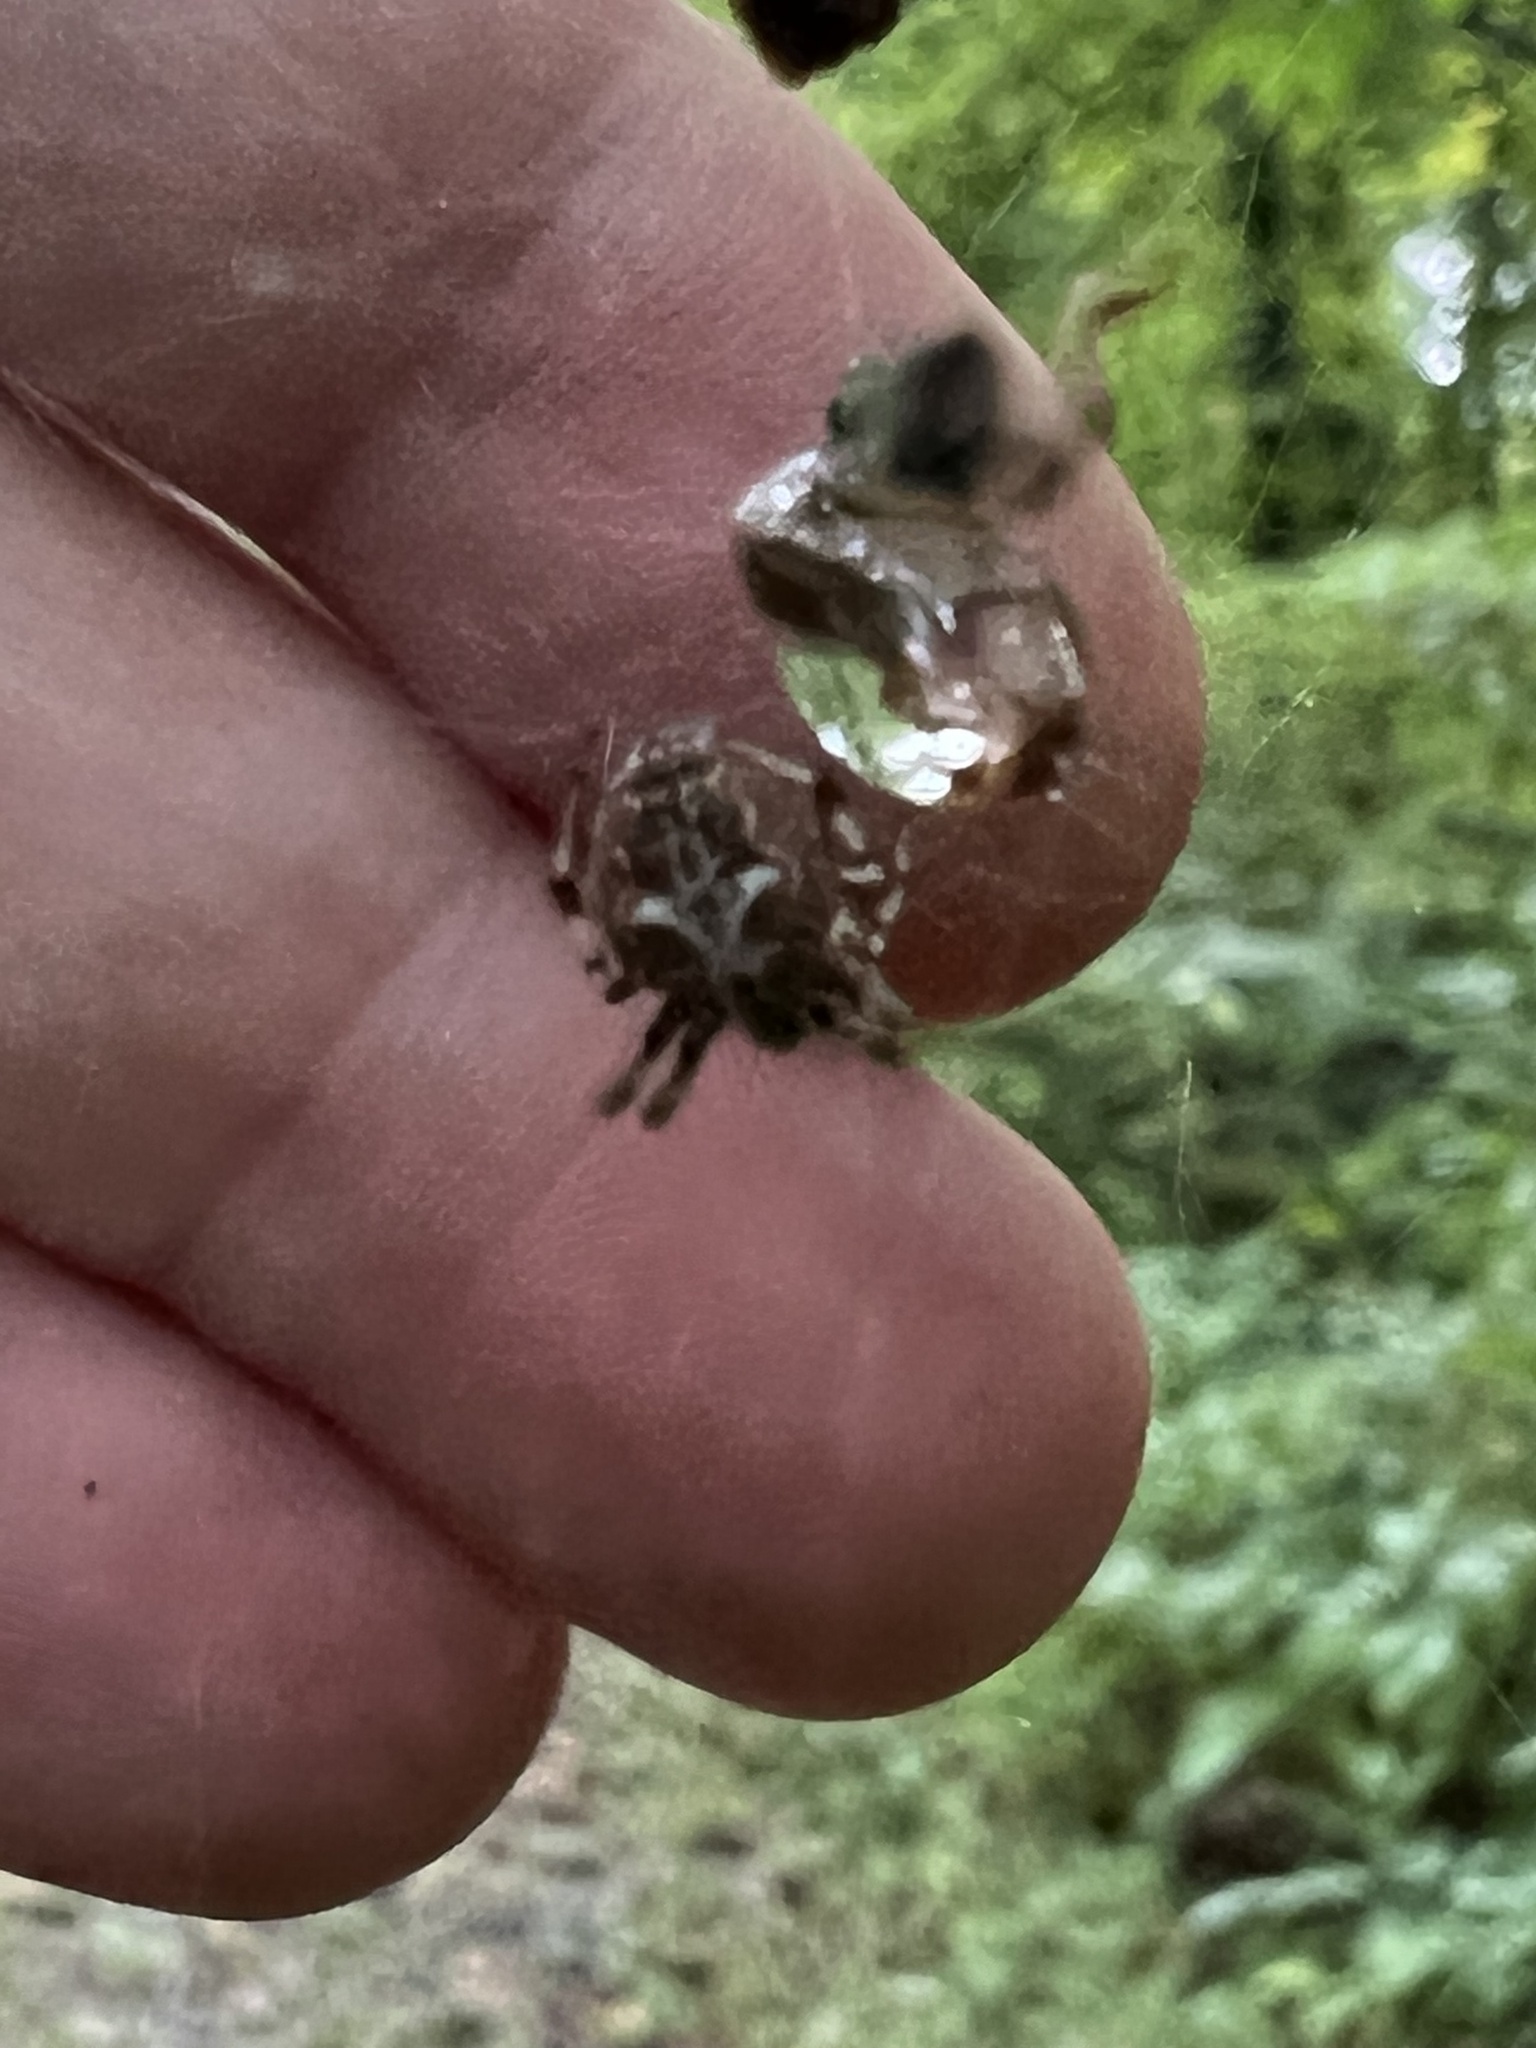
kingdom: Animalia
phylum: Arthropoda
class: Arachnida
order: Araneae
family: Araneidae
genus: Metepeira
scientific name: Metepeira labyrinthea
